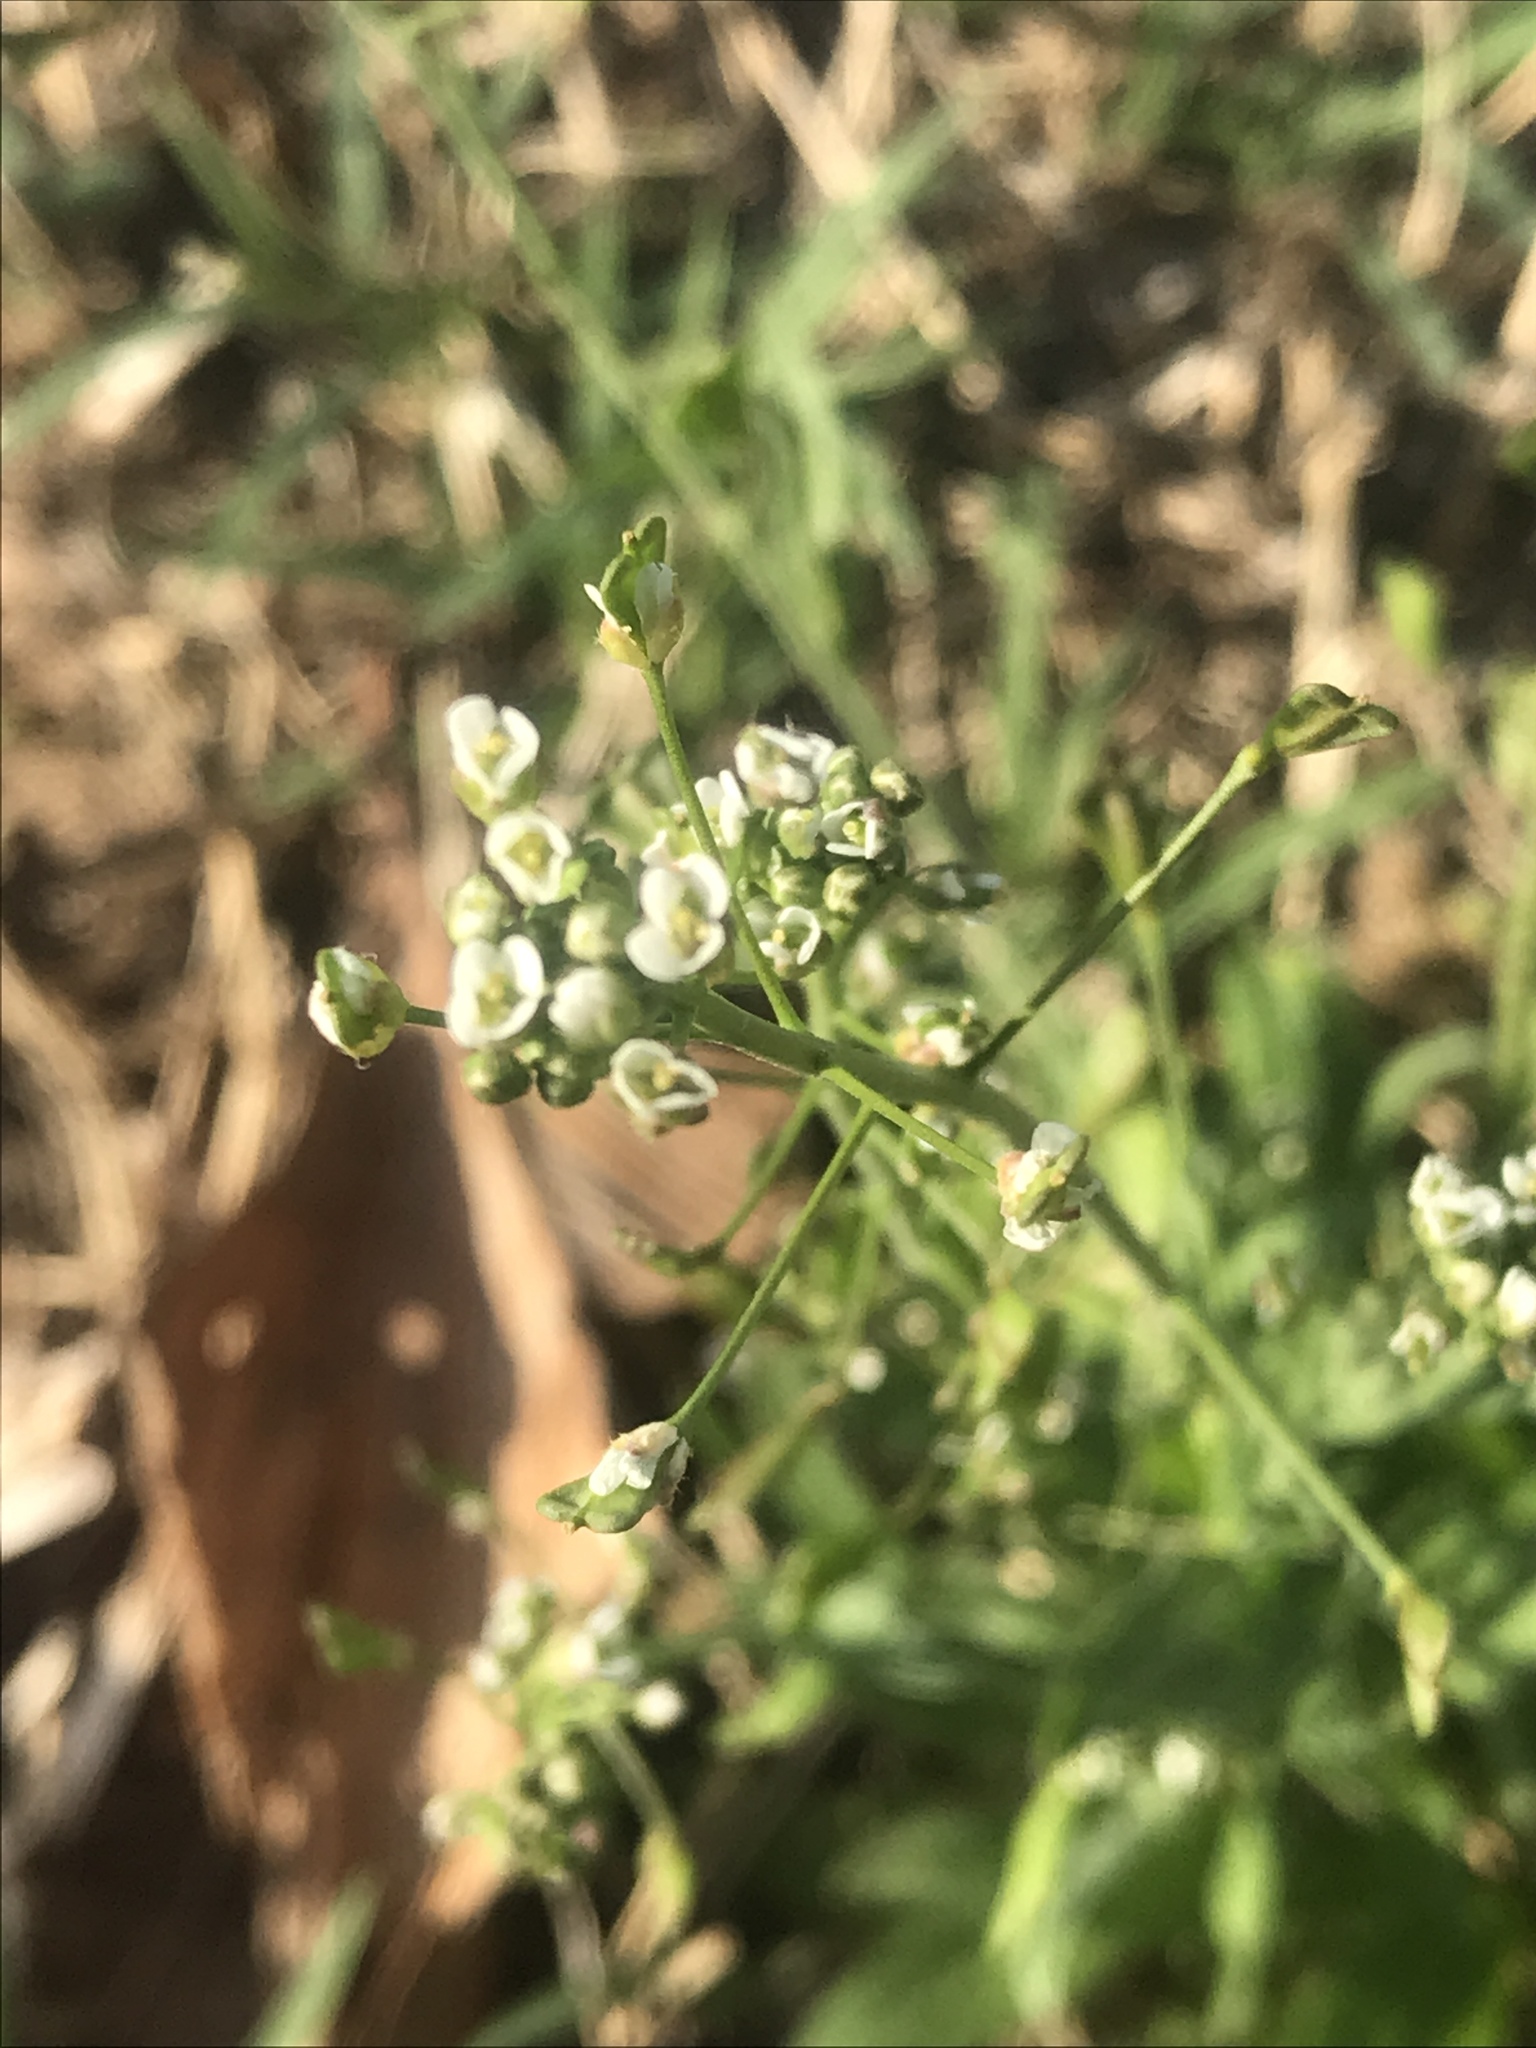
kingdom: Plantae
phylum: Tracheophyta
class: Magnoliopsida
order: Brassicales
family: Brassicaceae
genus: Capsella
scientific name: Capsella bursa-pastoris
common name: Shepherd's purse
